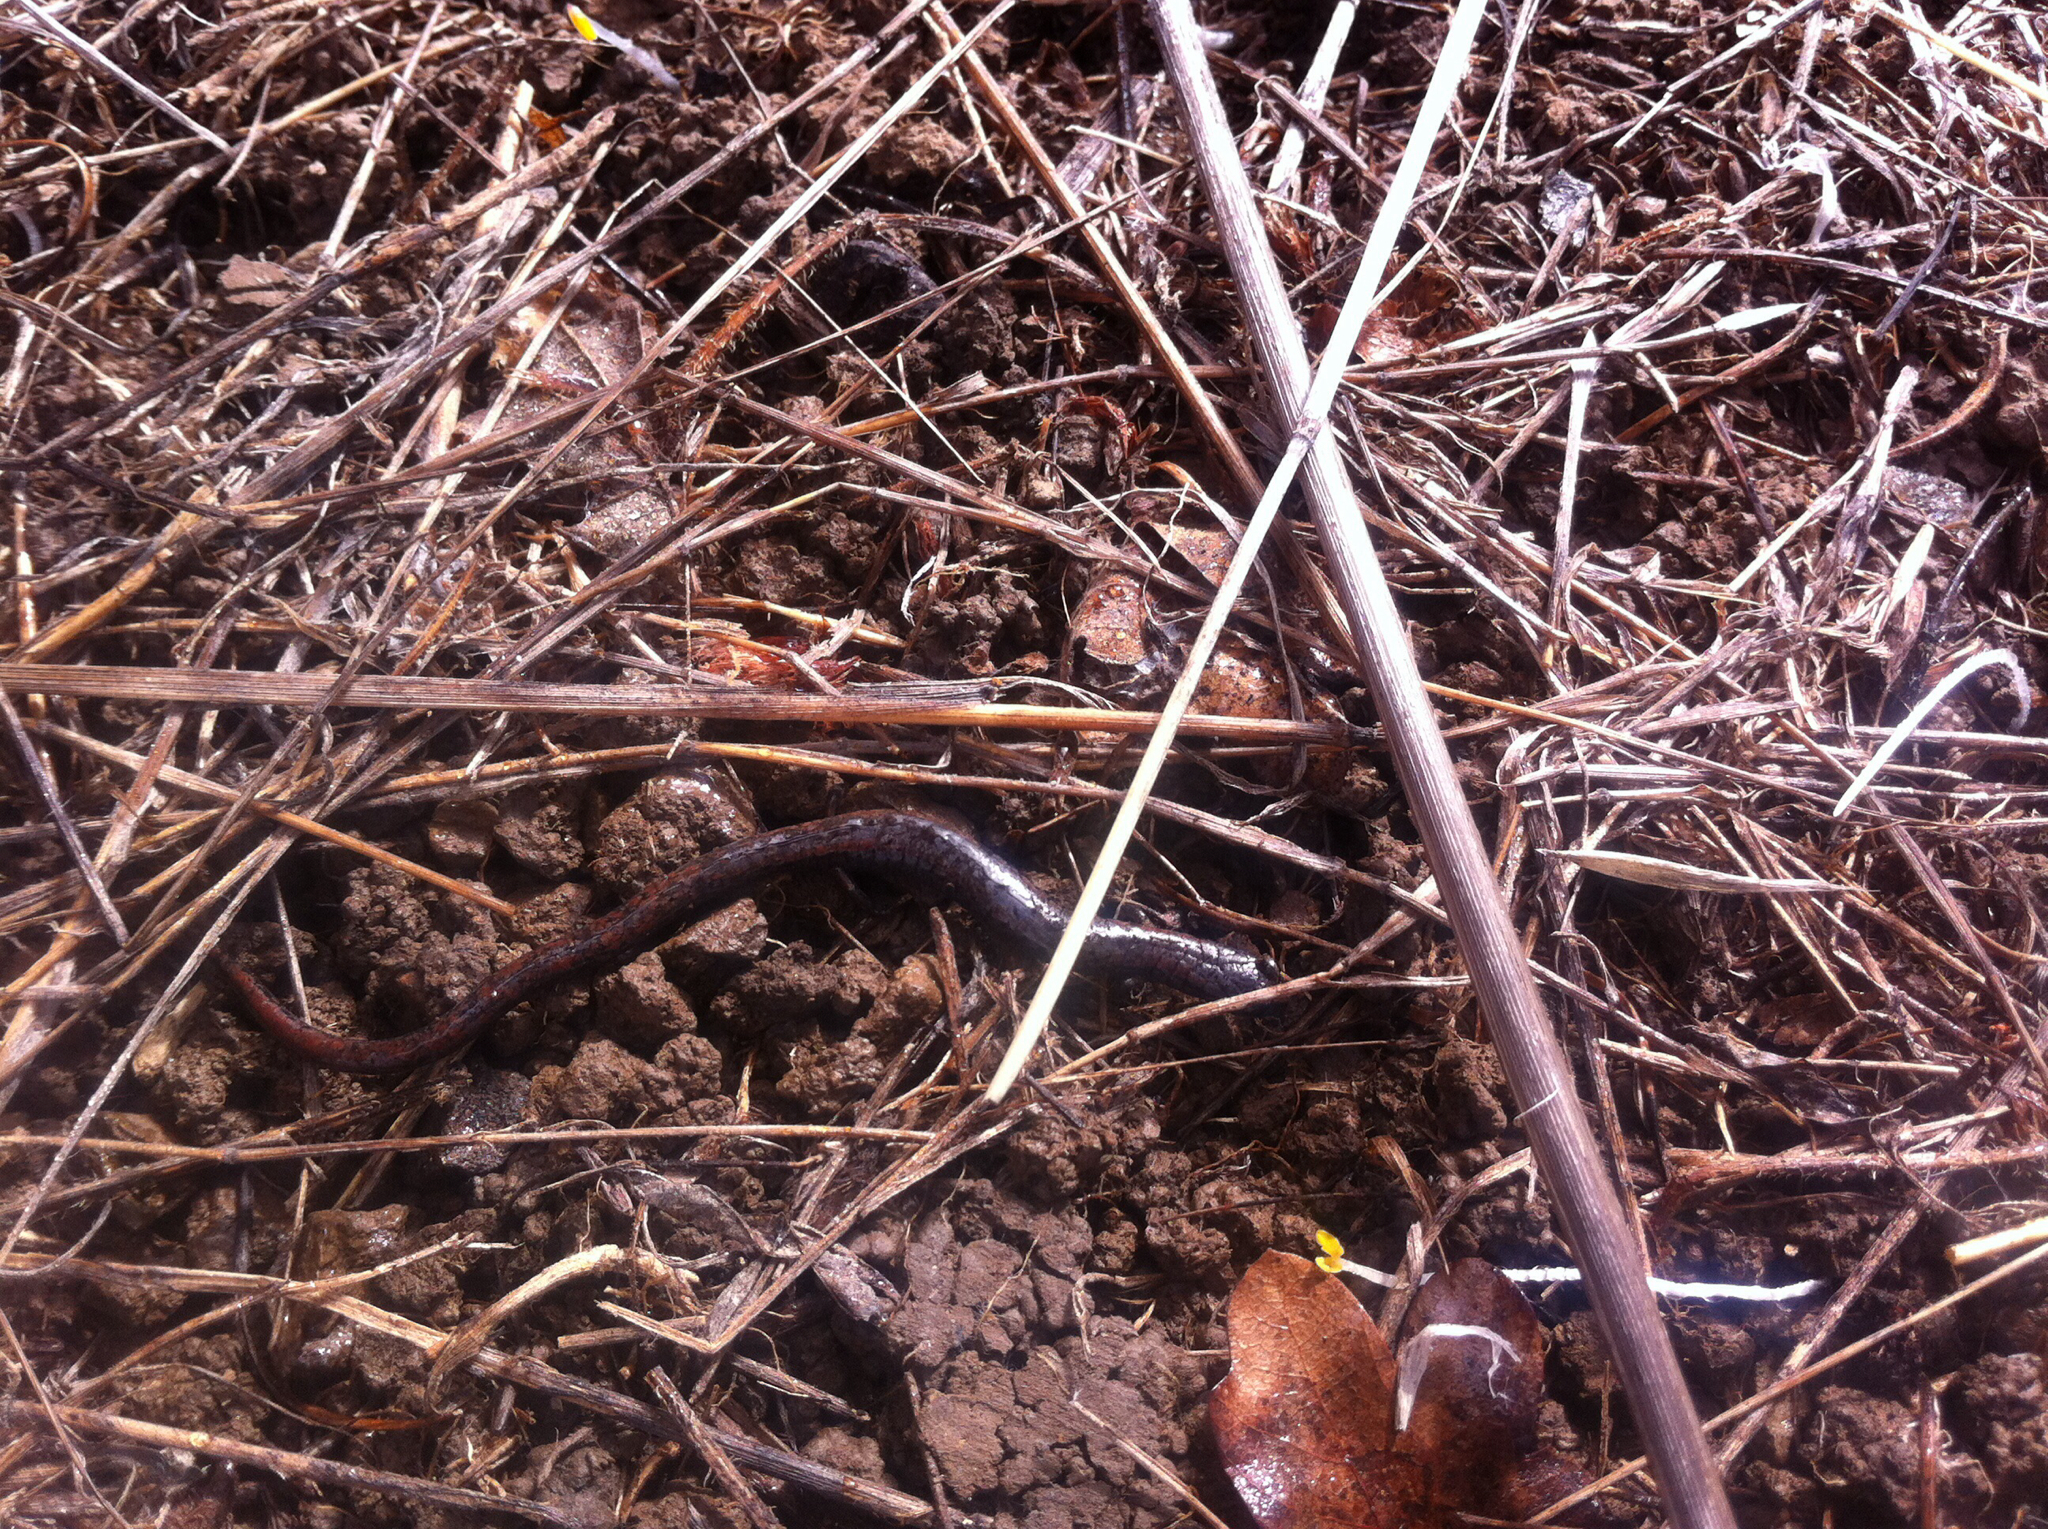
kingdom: Animalia
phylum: Chordata
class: Amphibia
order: Caudata
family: Plethodontidae
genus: Batrachoseps
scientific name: Batrachoseps attenuatus
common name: California slender salamander
